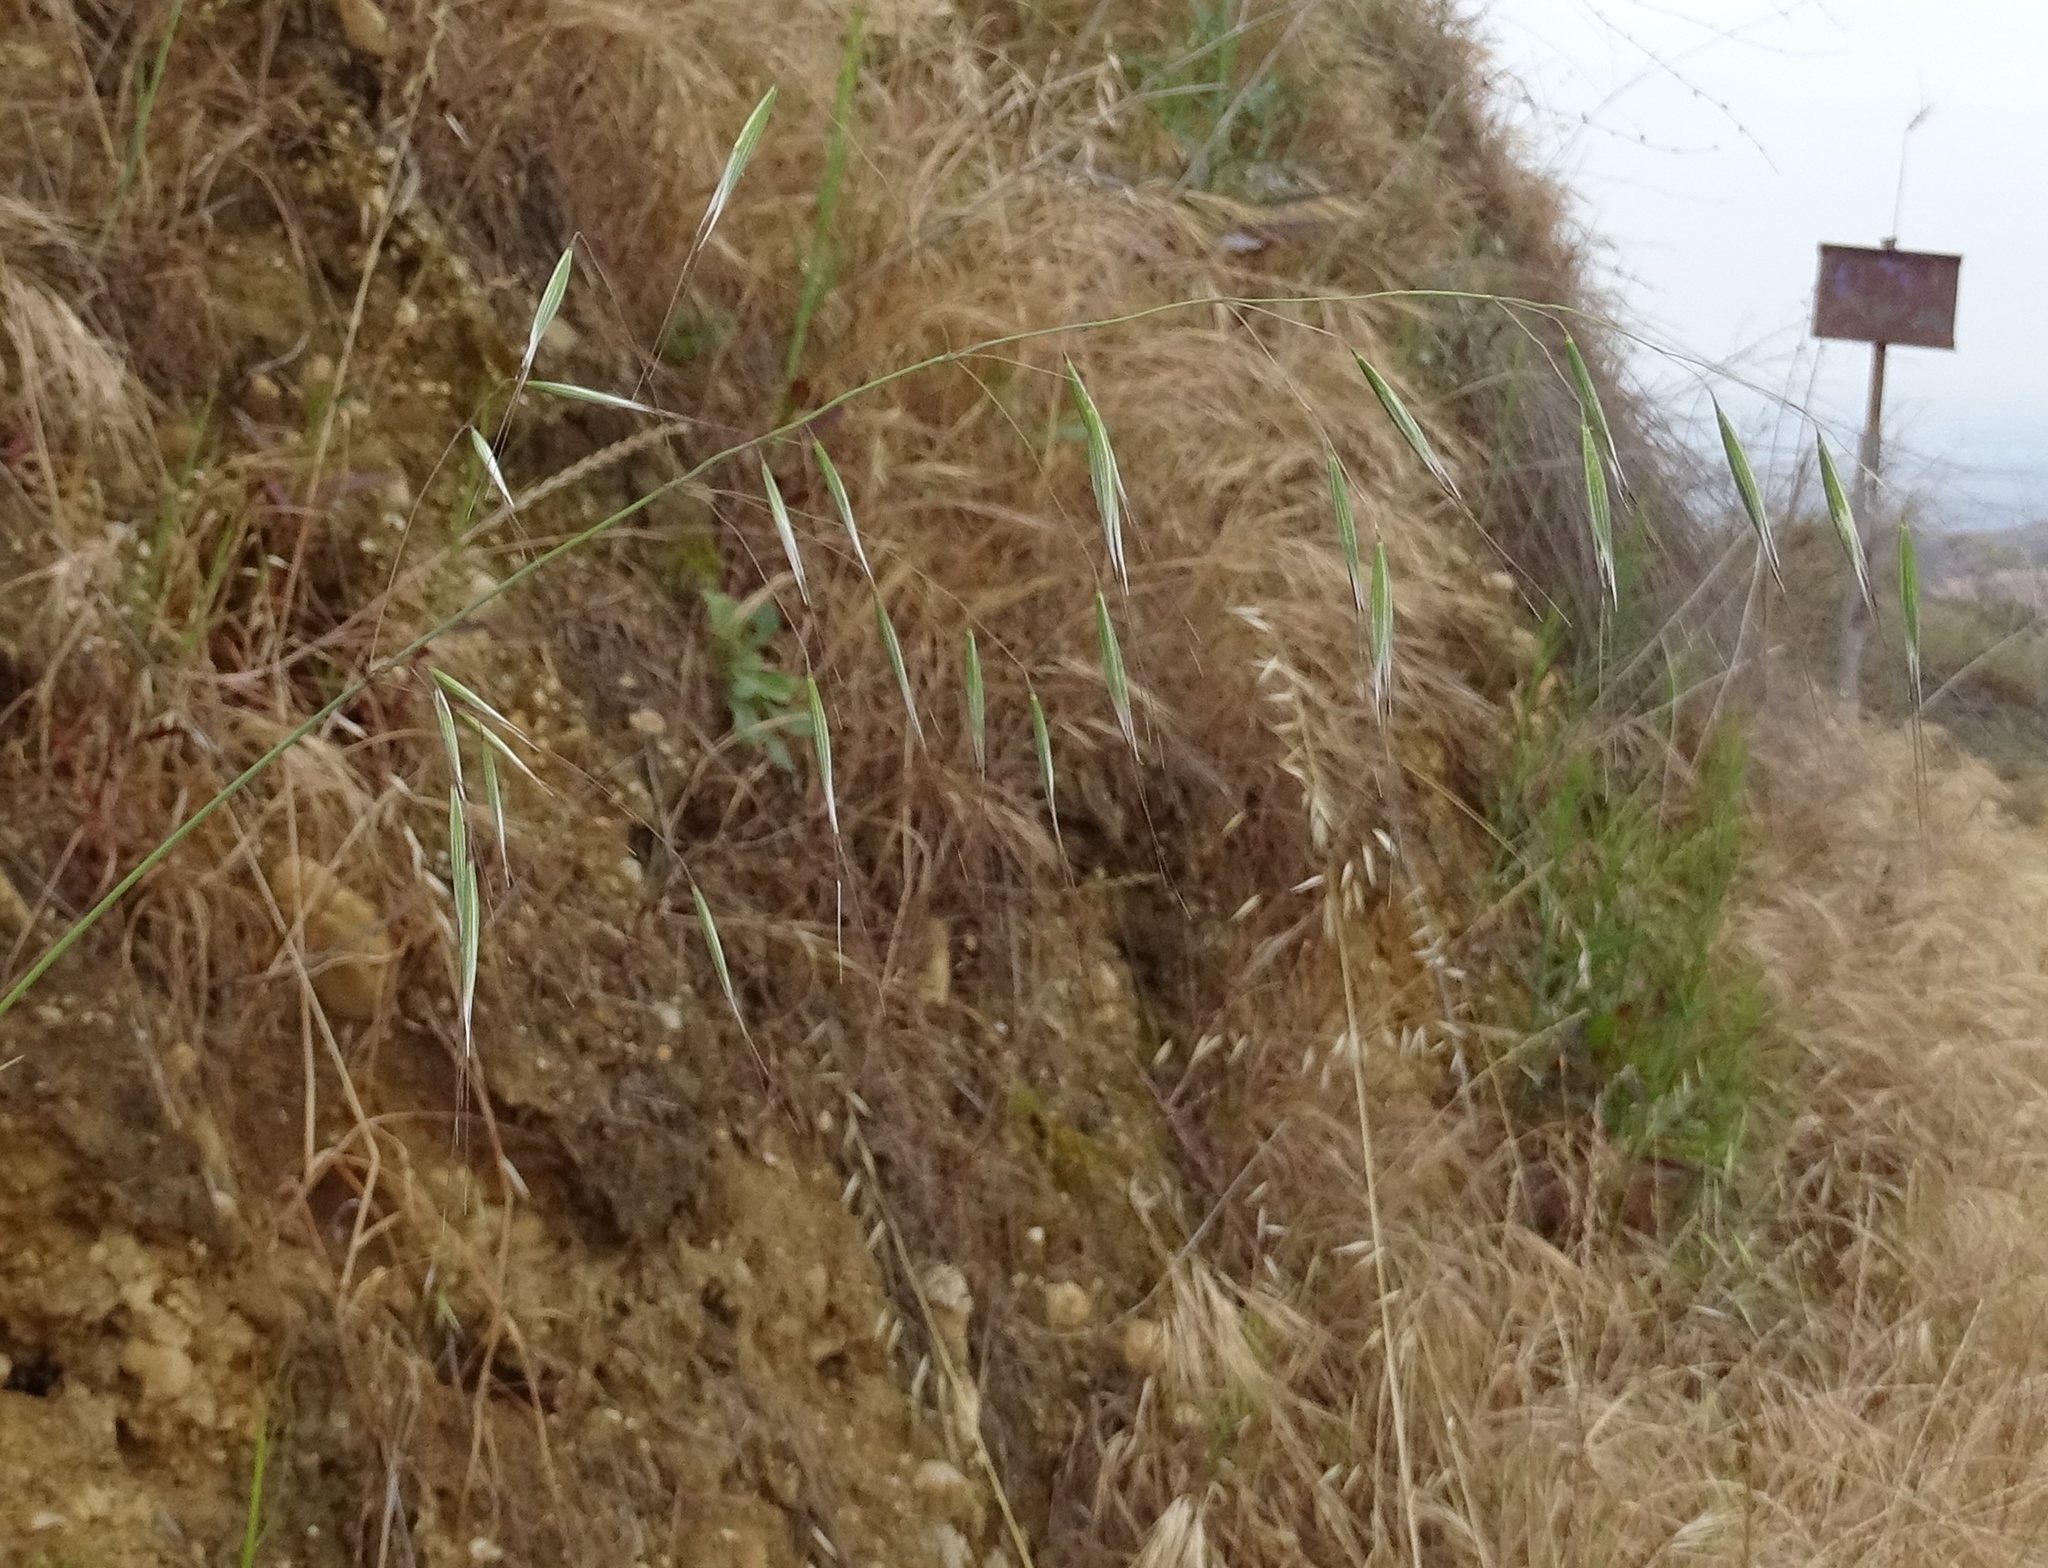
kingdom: Plantae
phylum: Tracheophyta
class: Liliopsida
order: Poales
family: Poaceae
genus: Avena
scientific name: Avena barbata
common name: Slender oat
